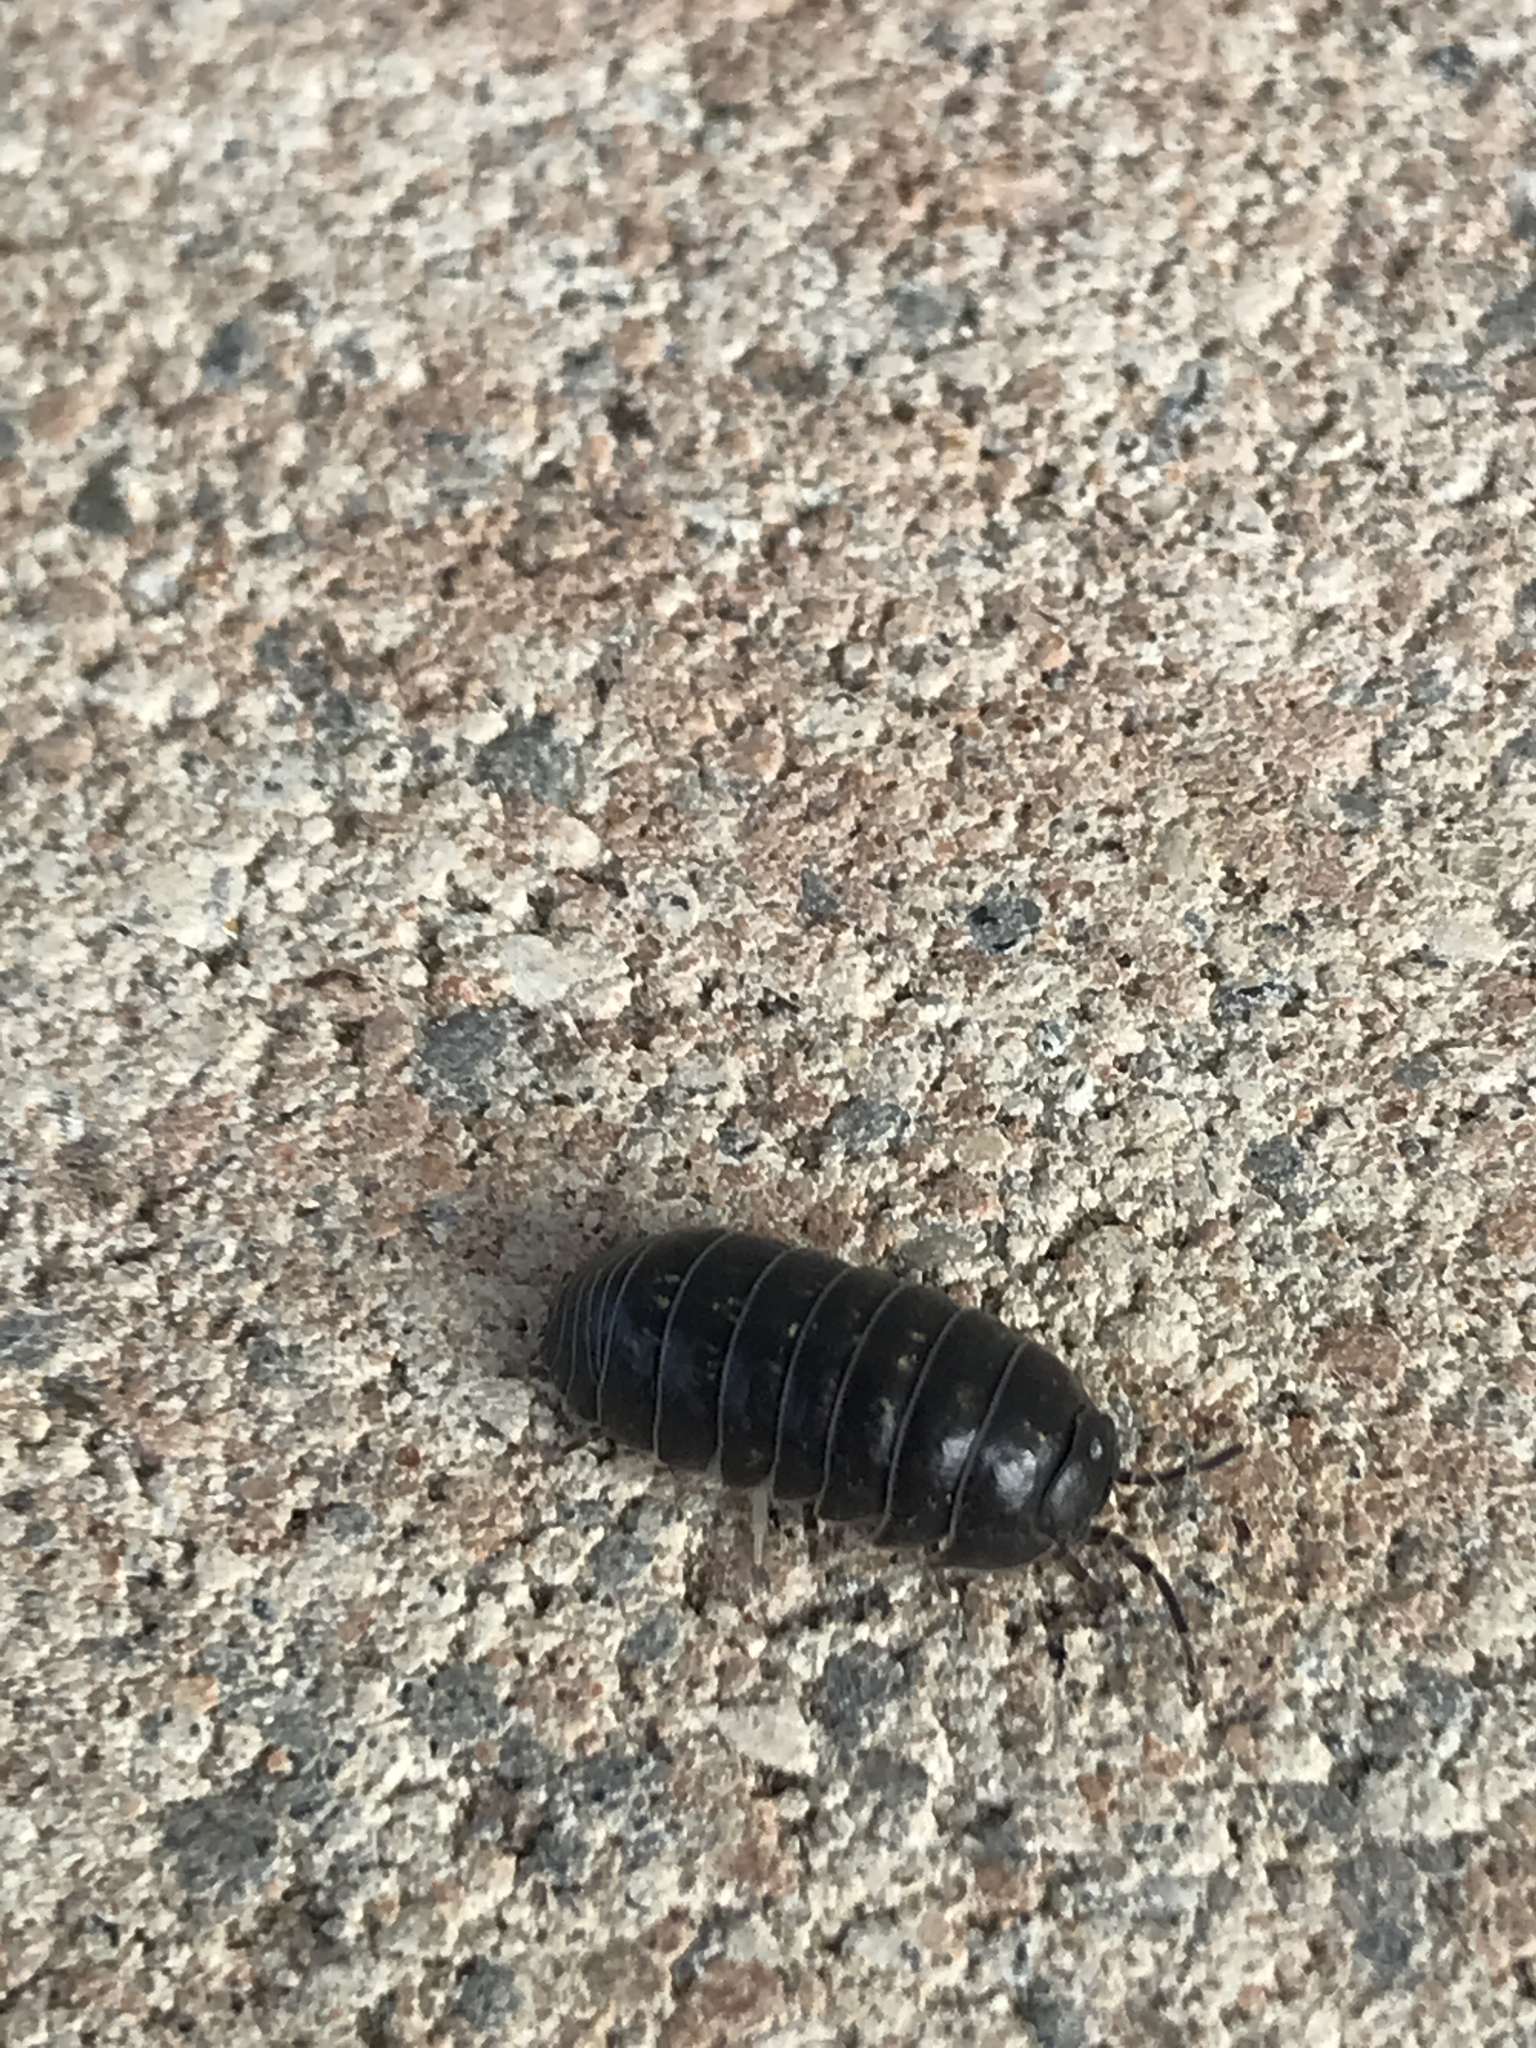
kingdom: Animalia
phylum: Arthropoda
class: Malacostraca
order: Isopoda
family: Armadillidiidae
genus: Armadillidium
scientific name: Armadillidium vulgare
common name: Common pill woodlouse
